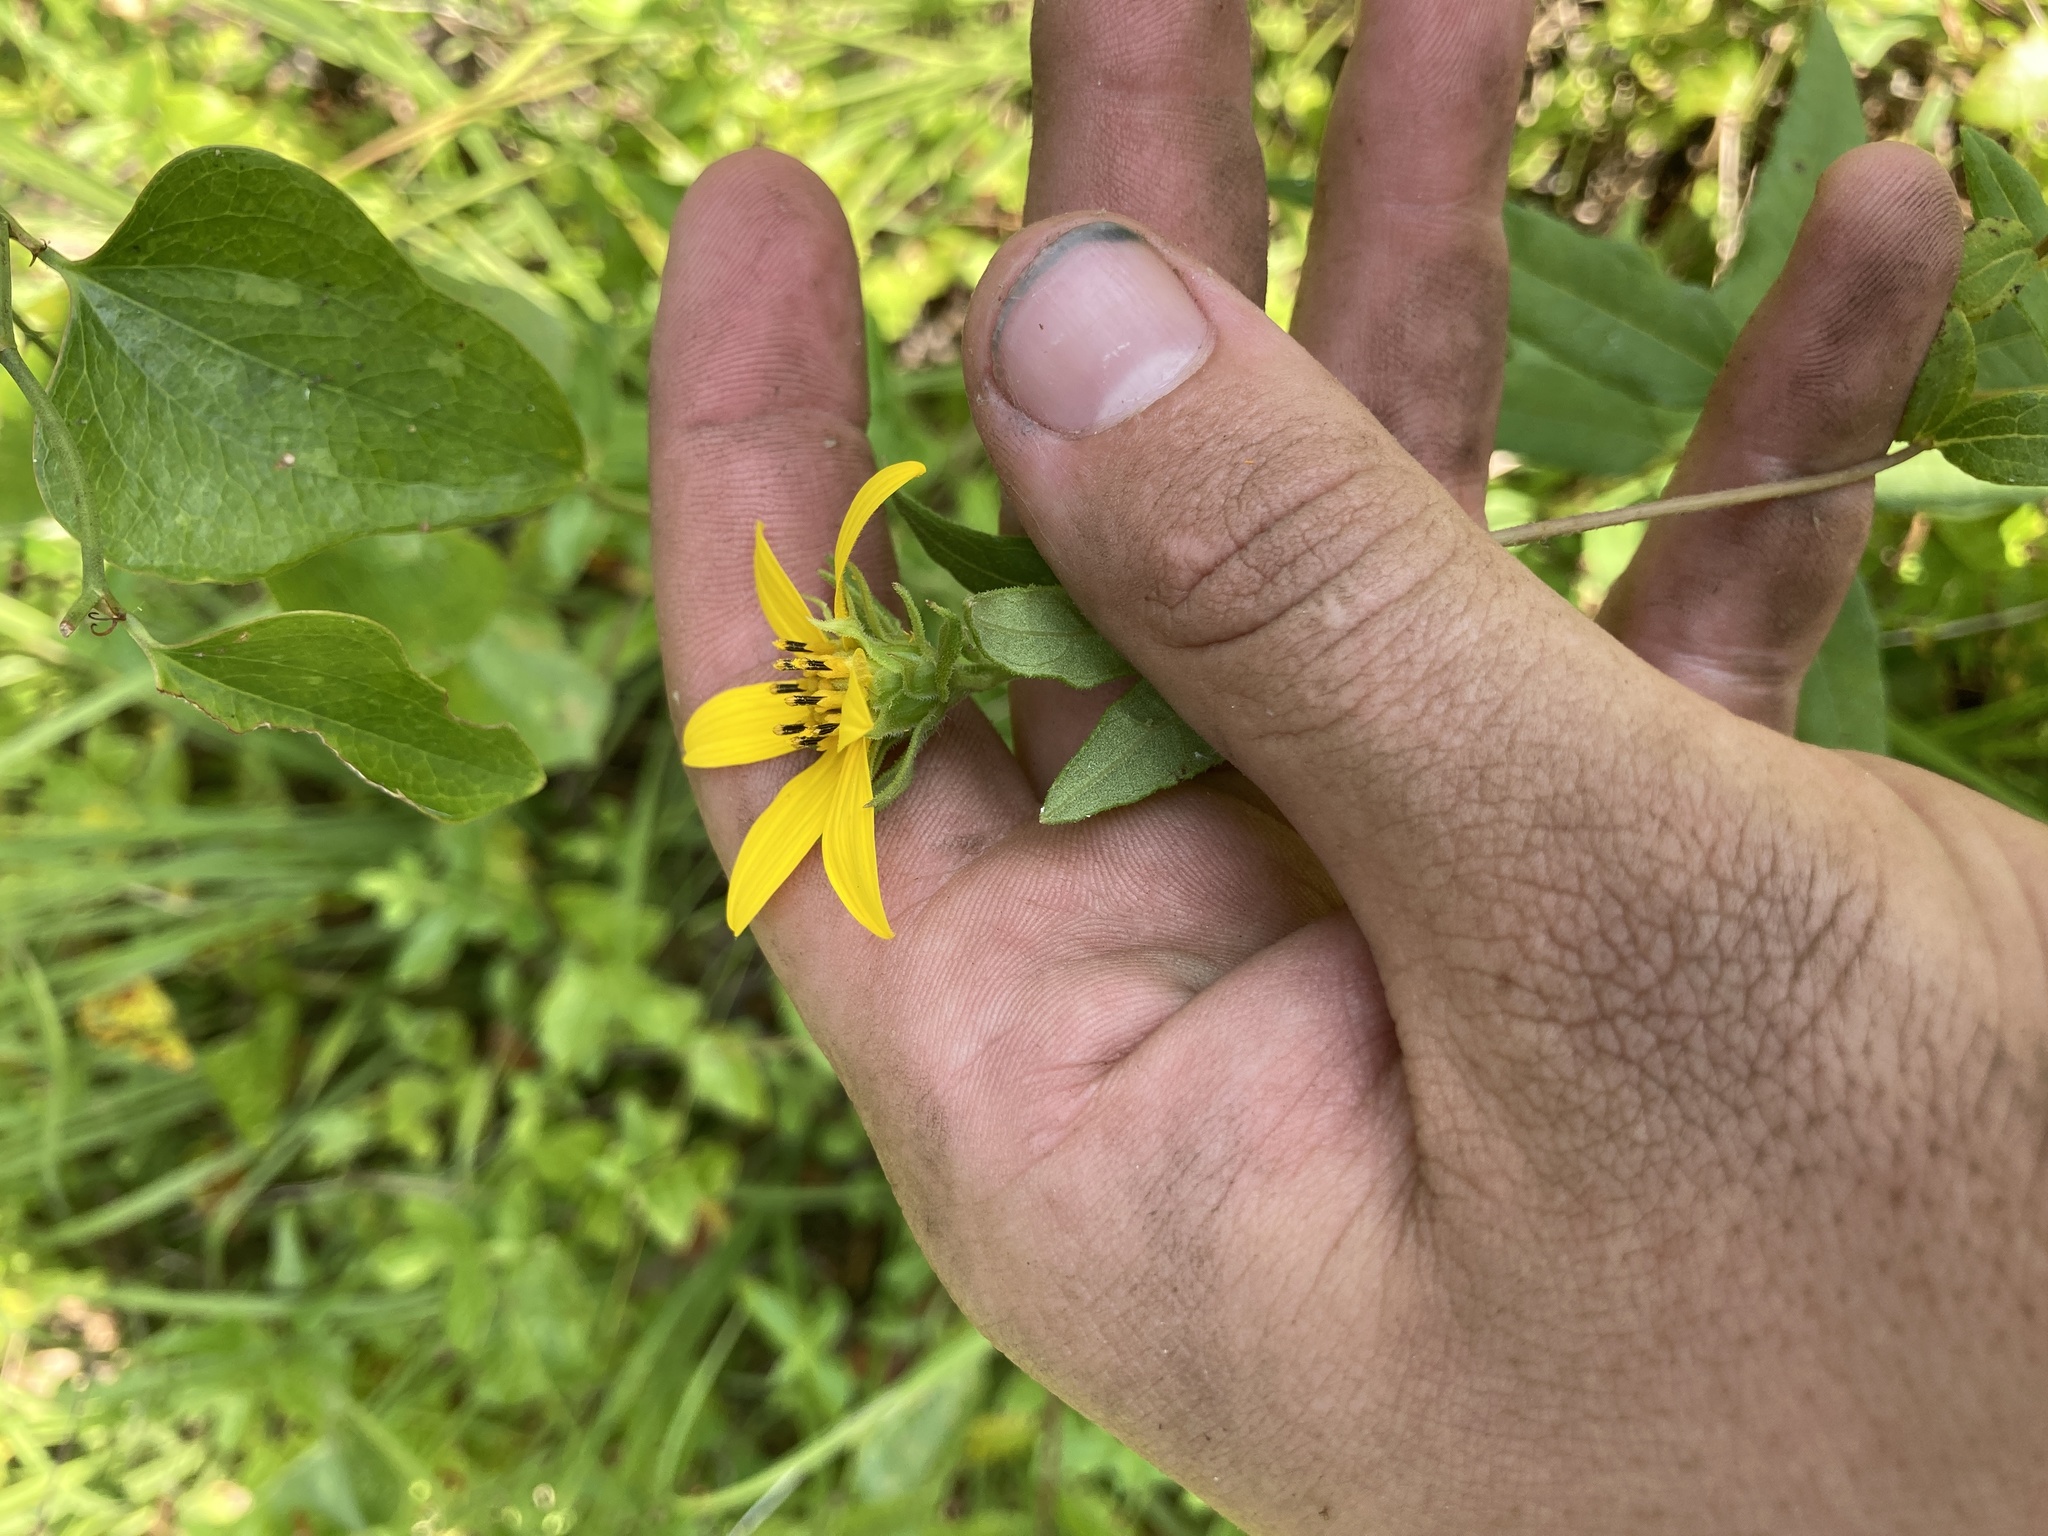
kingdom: Plantae
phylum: Tracheophyta
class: Magnoliopsida
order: Asterales
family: Asteraceae
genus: Helianthus
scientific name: Helianthus strumosus
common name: Pale-leaved sunflower
